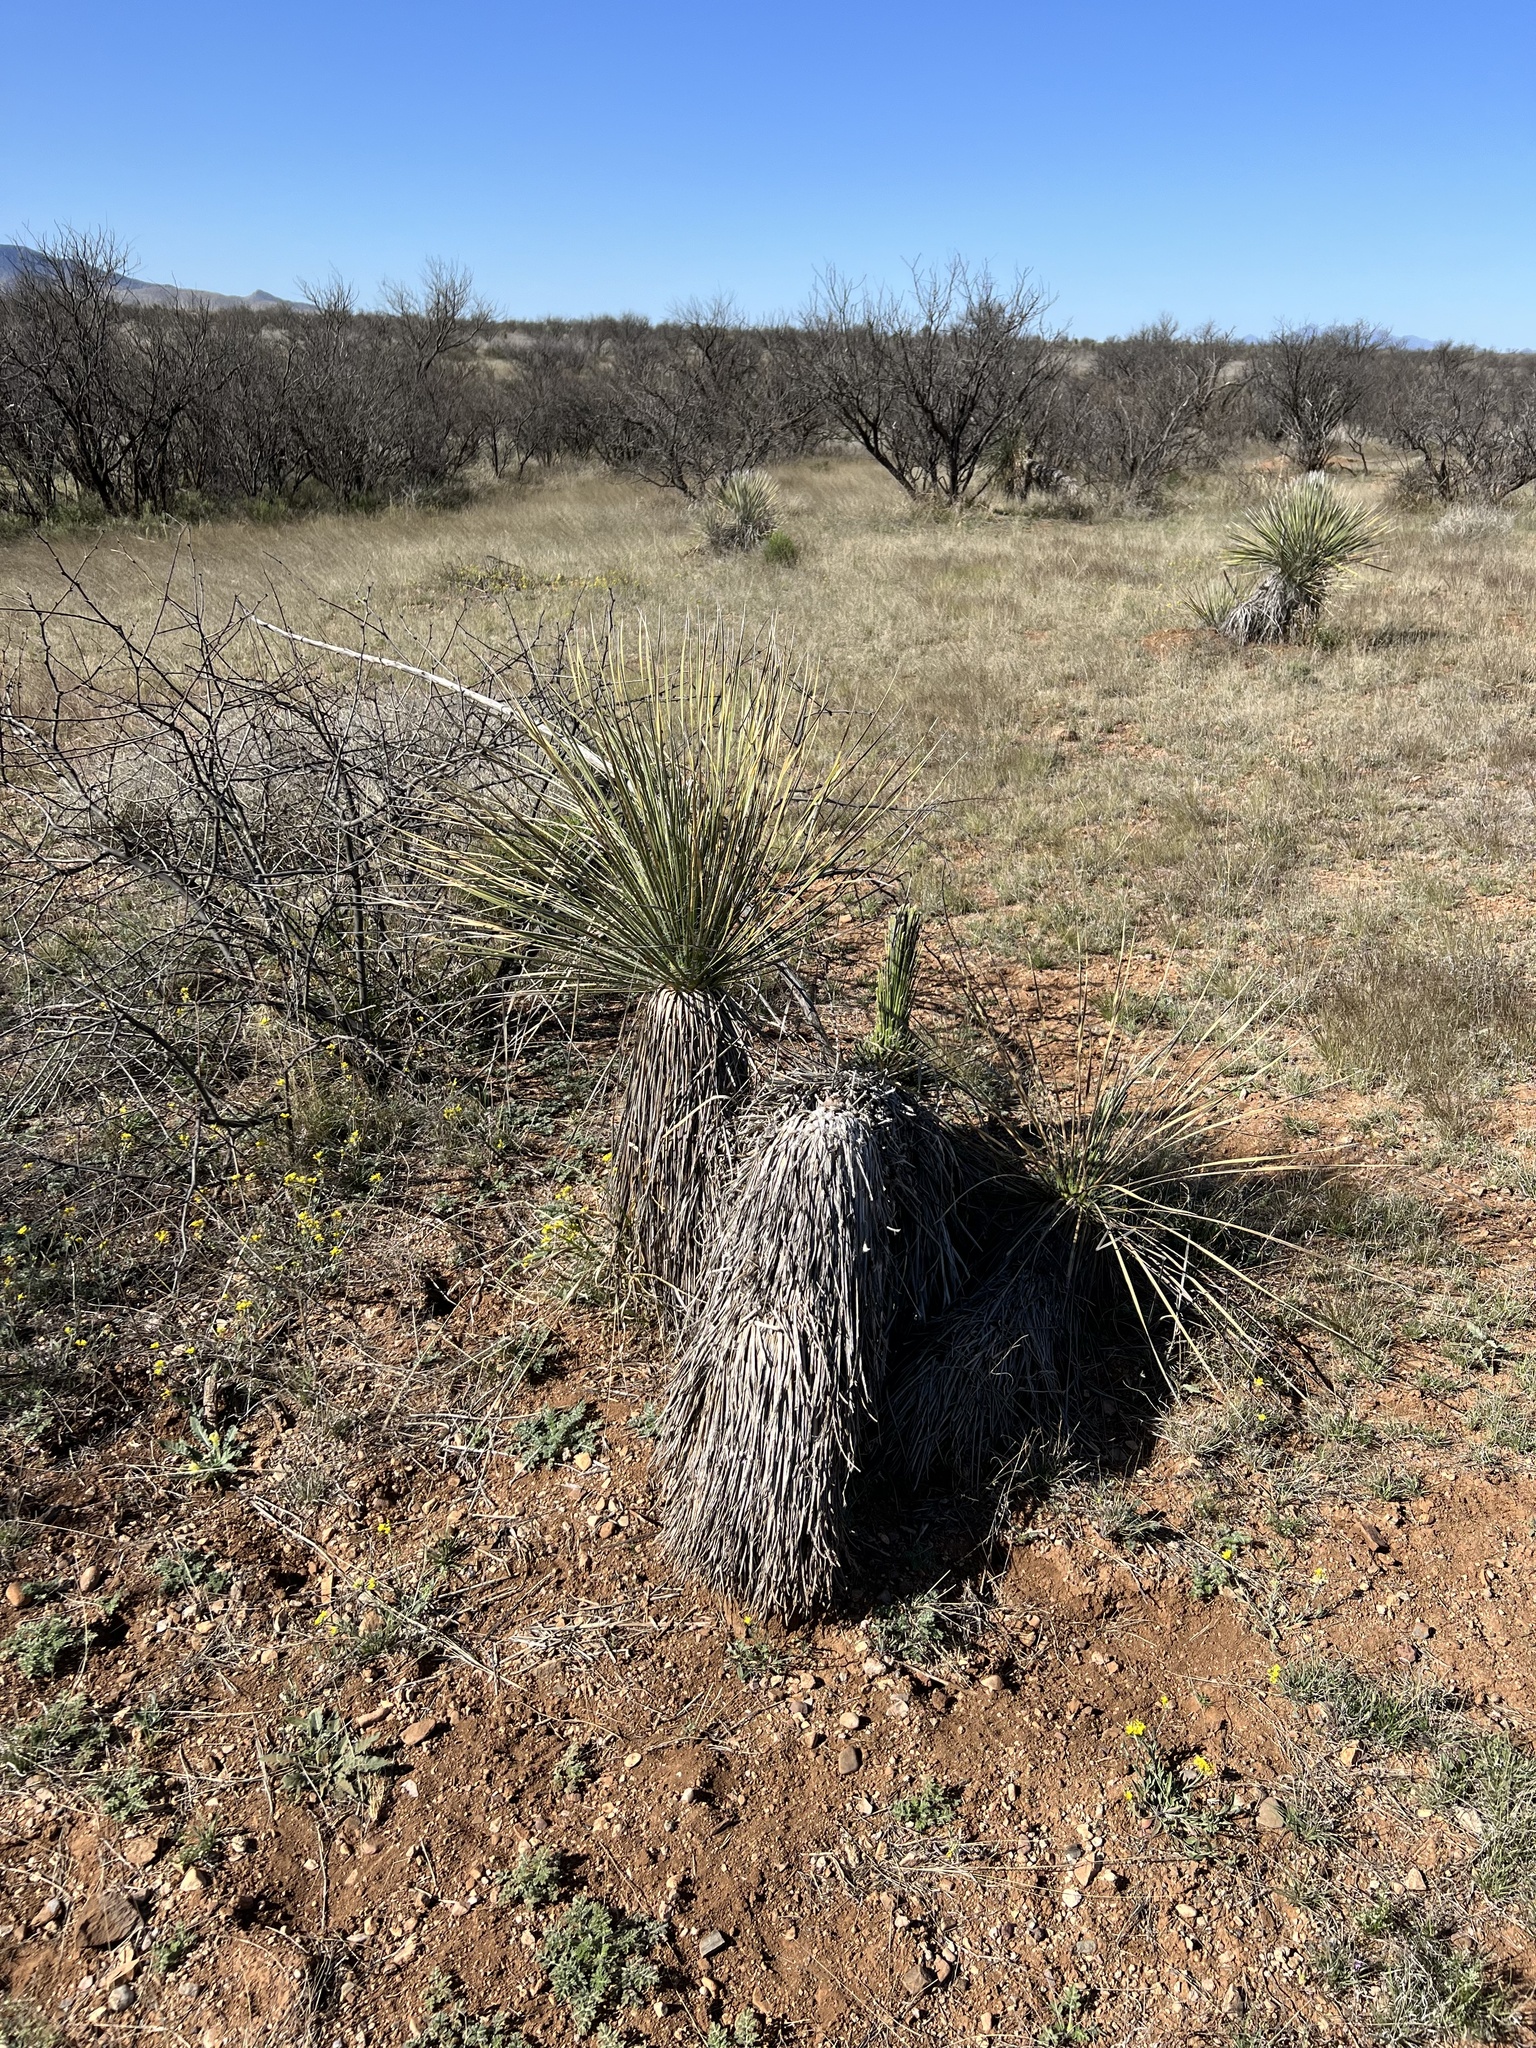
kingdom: Plantae
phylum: Tracheophyta
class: Liliopsida
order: Asparagales
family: Asparagaceae
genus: Yucca
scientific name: Yucca elata
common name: Palmella
